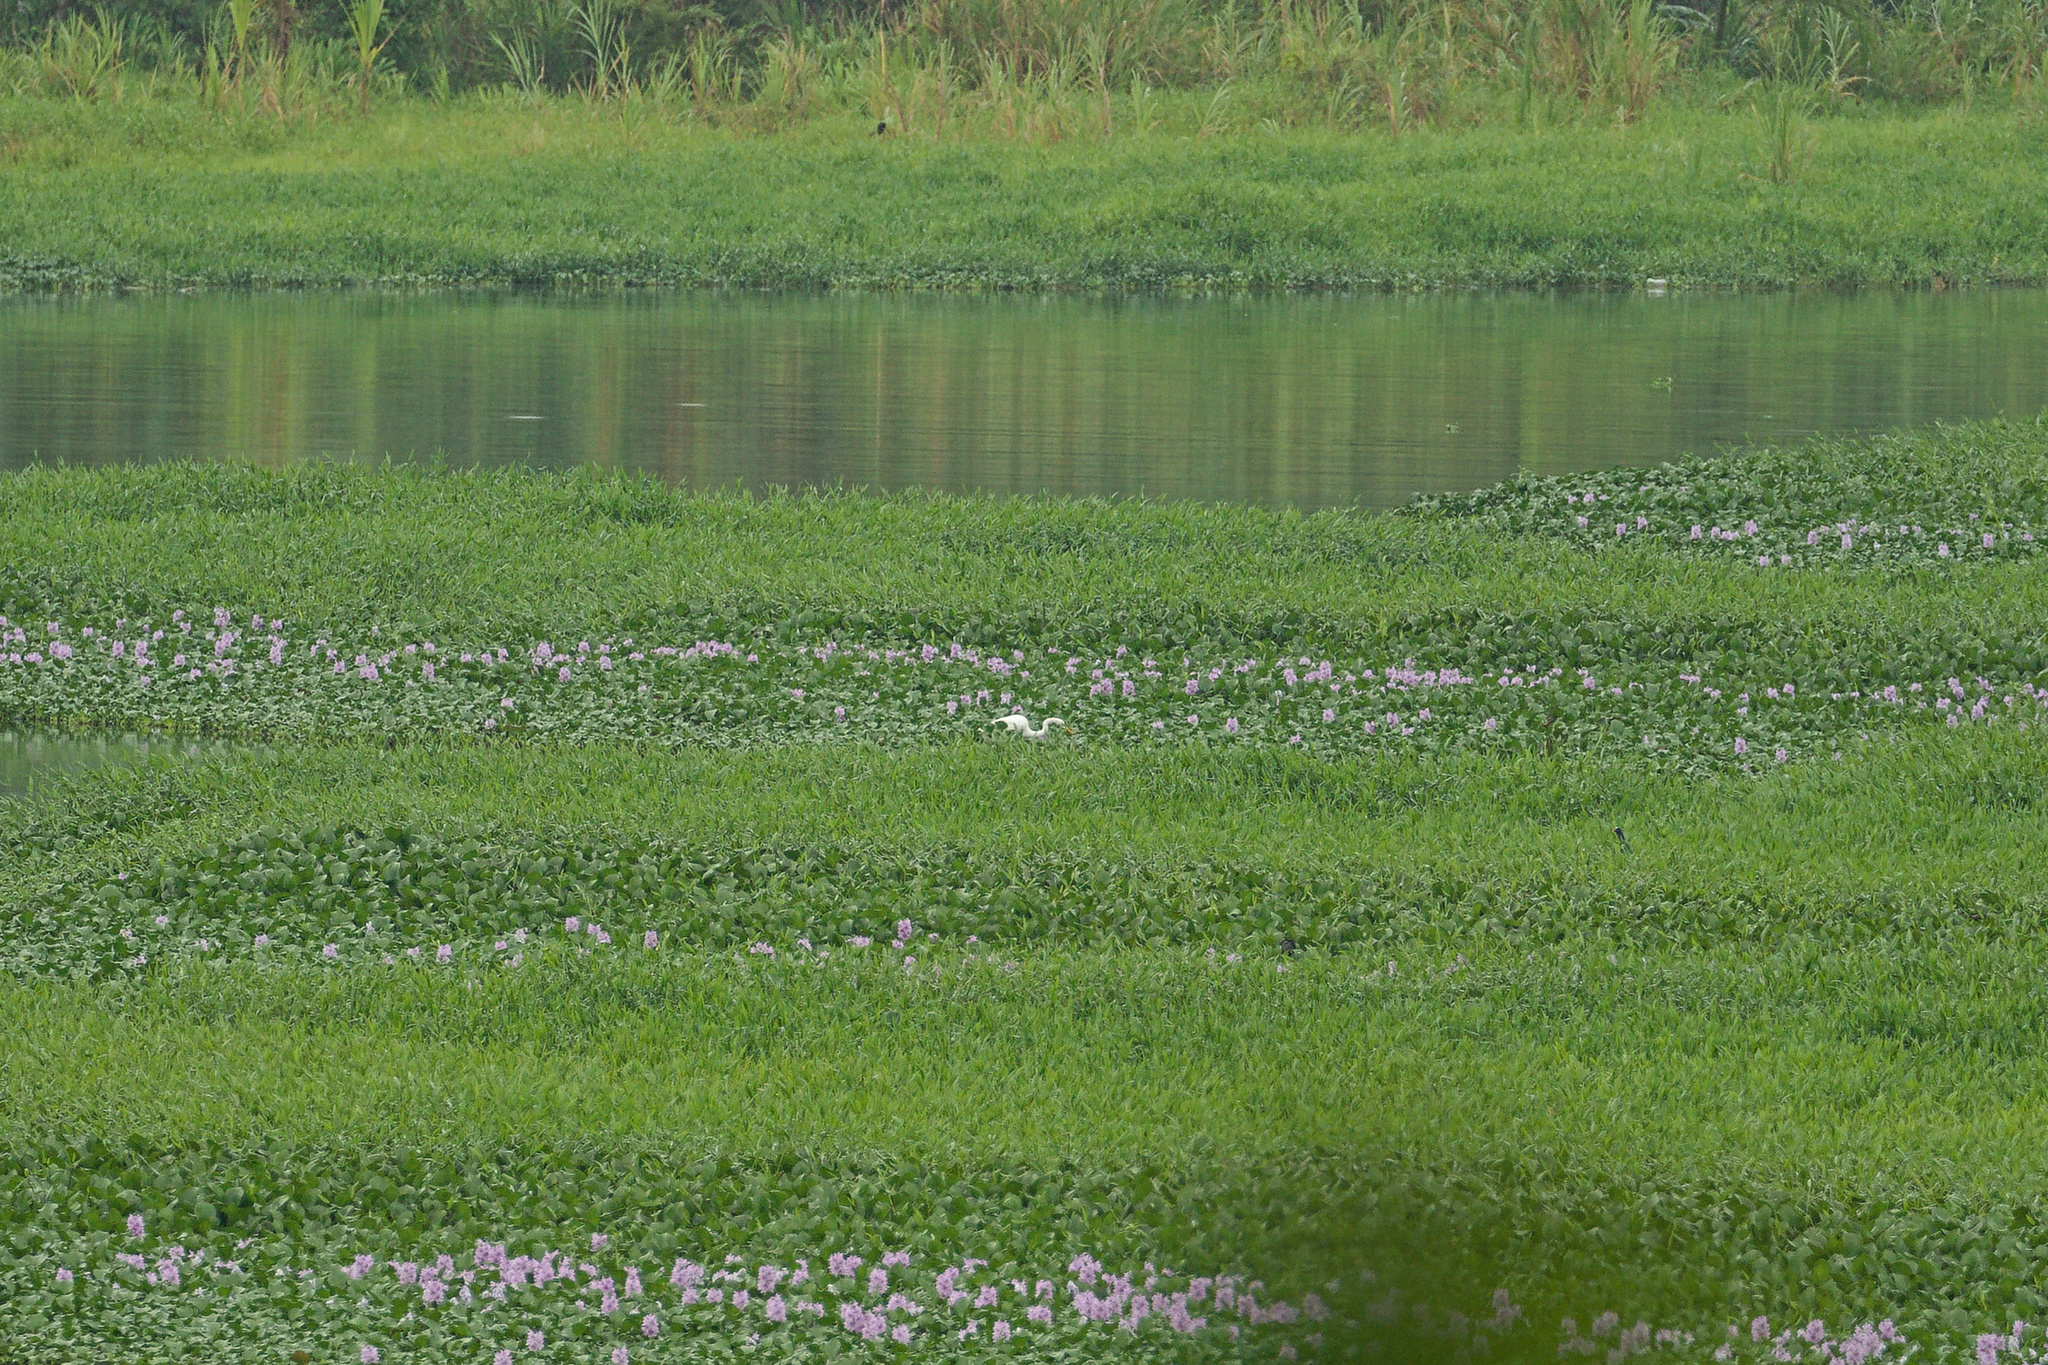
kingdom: Animalia
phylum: Chordata
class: Aves
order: Gruiformes
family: Rallidae
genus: Porphyrio
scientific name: Porphyrio martinica
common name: Purple gallinule
